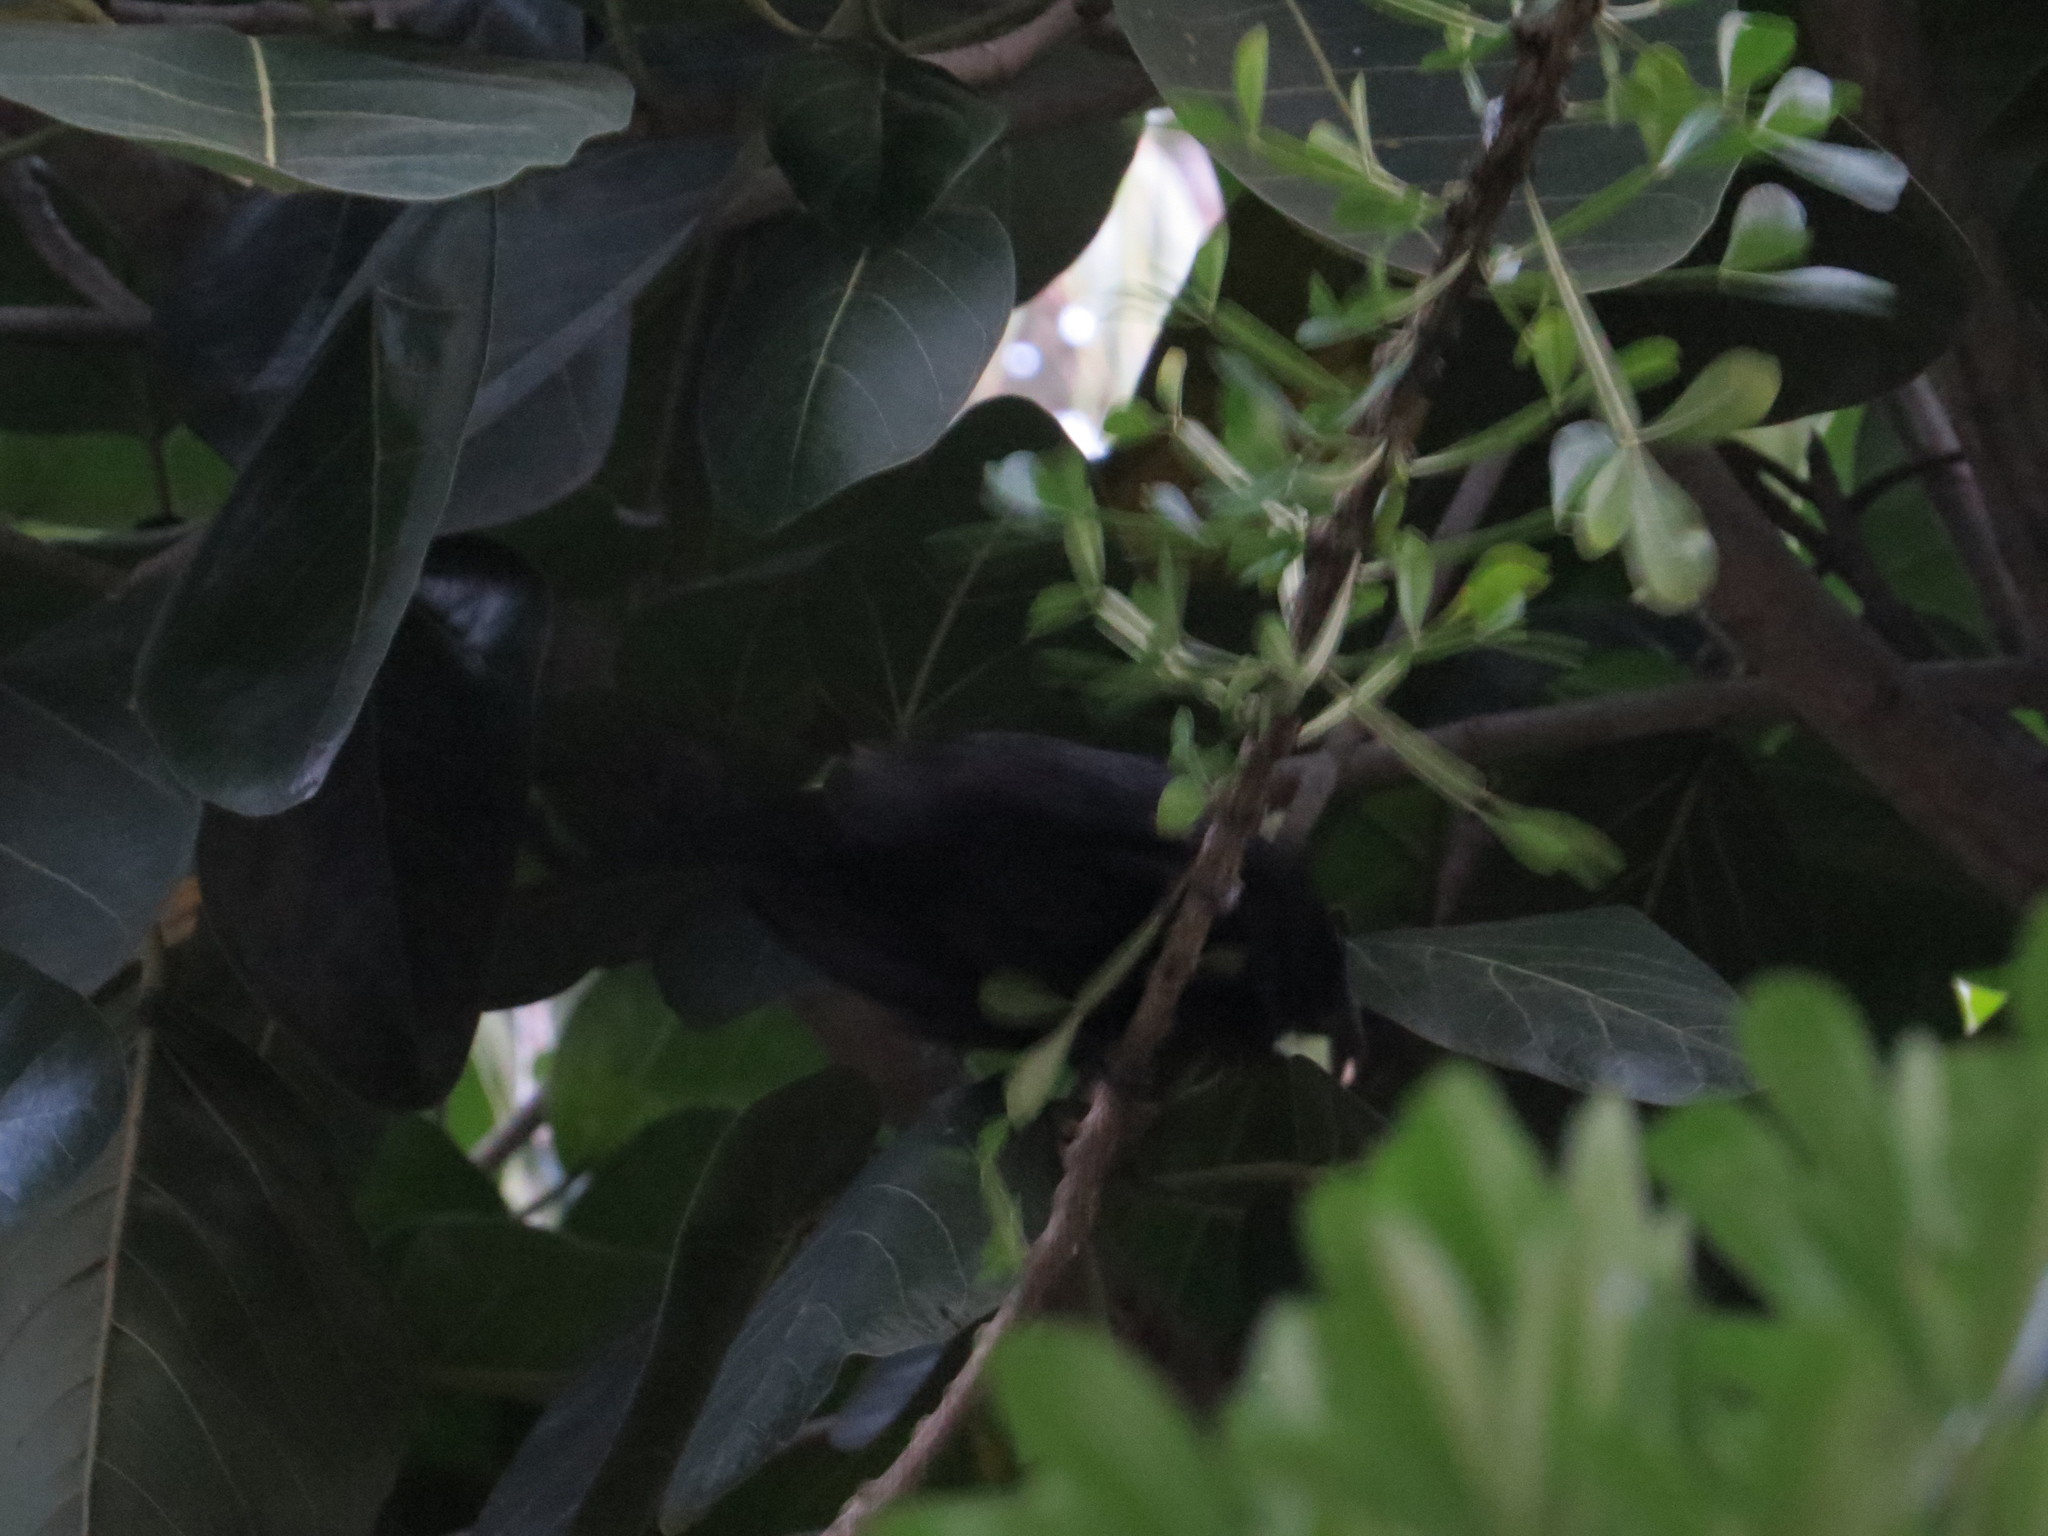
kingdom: Animalia
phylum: Chordata
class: Aves
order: Passeriformes
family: Mimidae
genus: Dumetella
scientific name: Dumetella carolinensis
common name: Gray catbird
